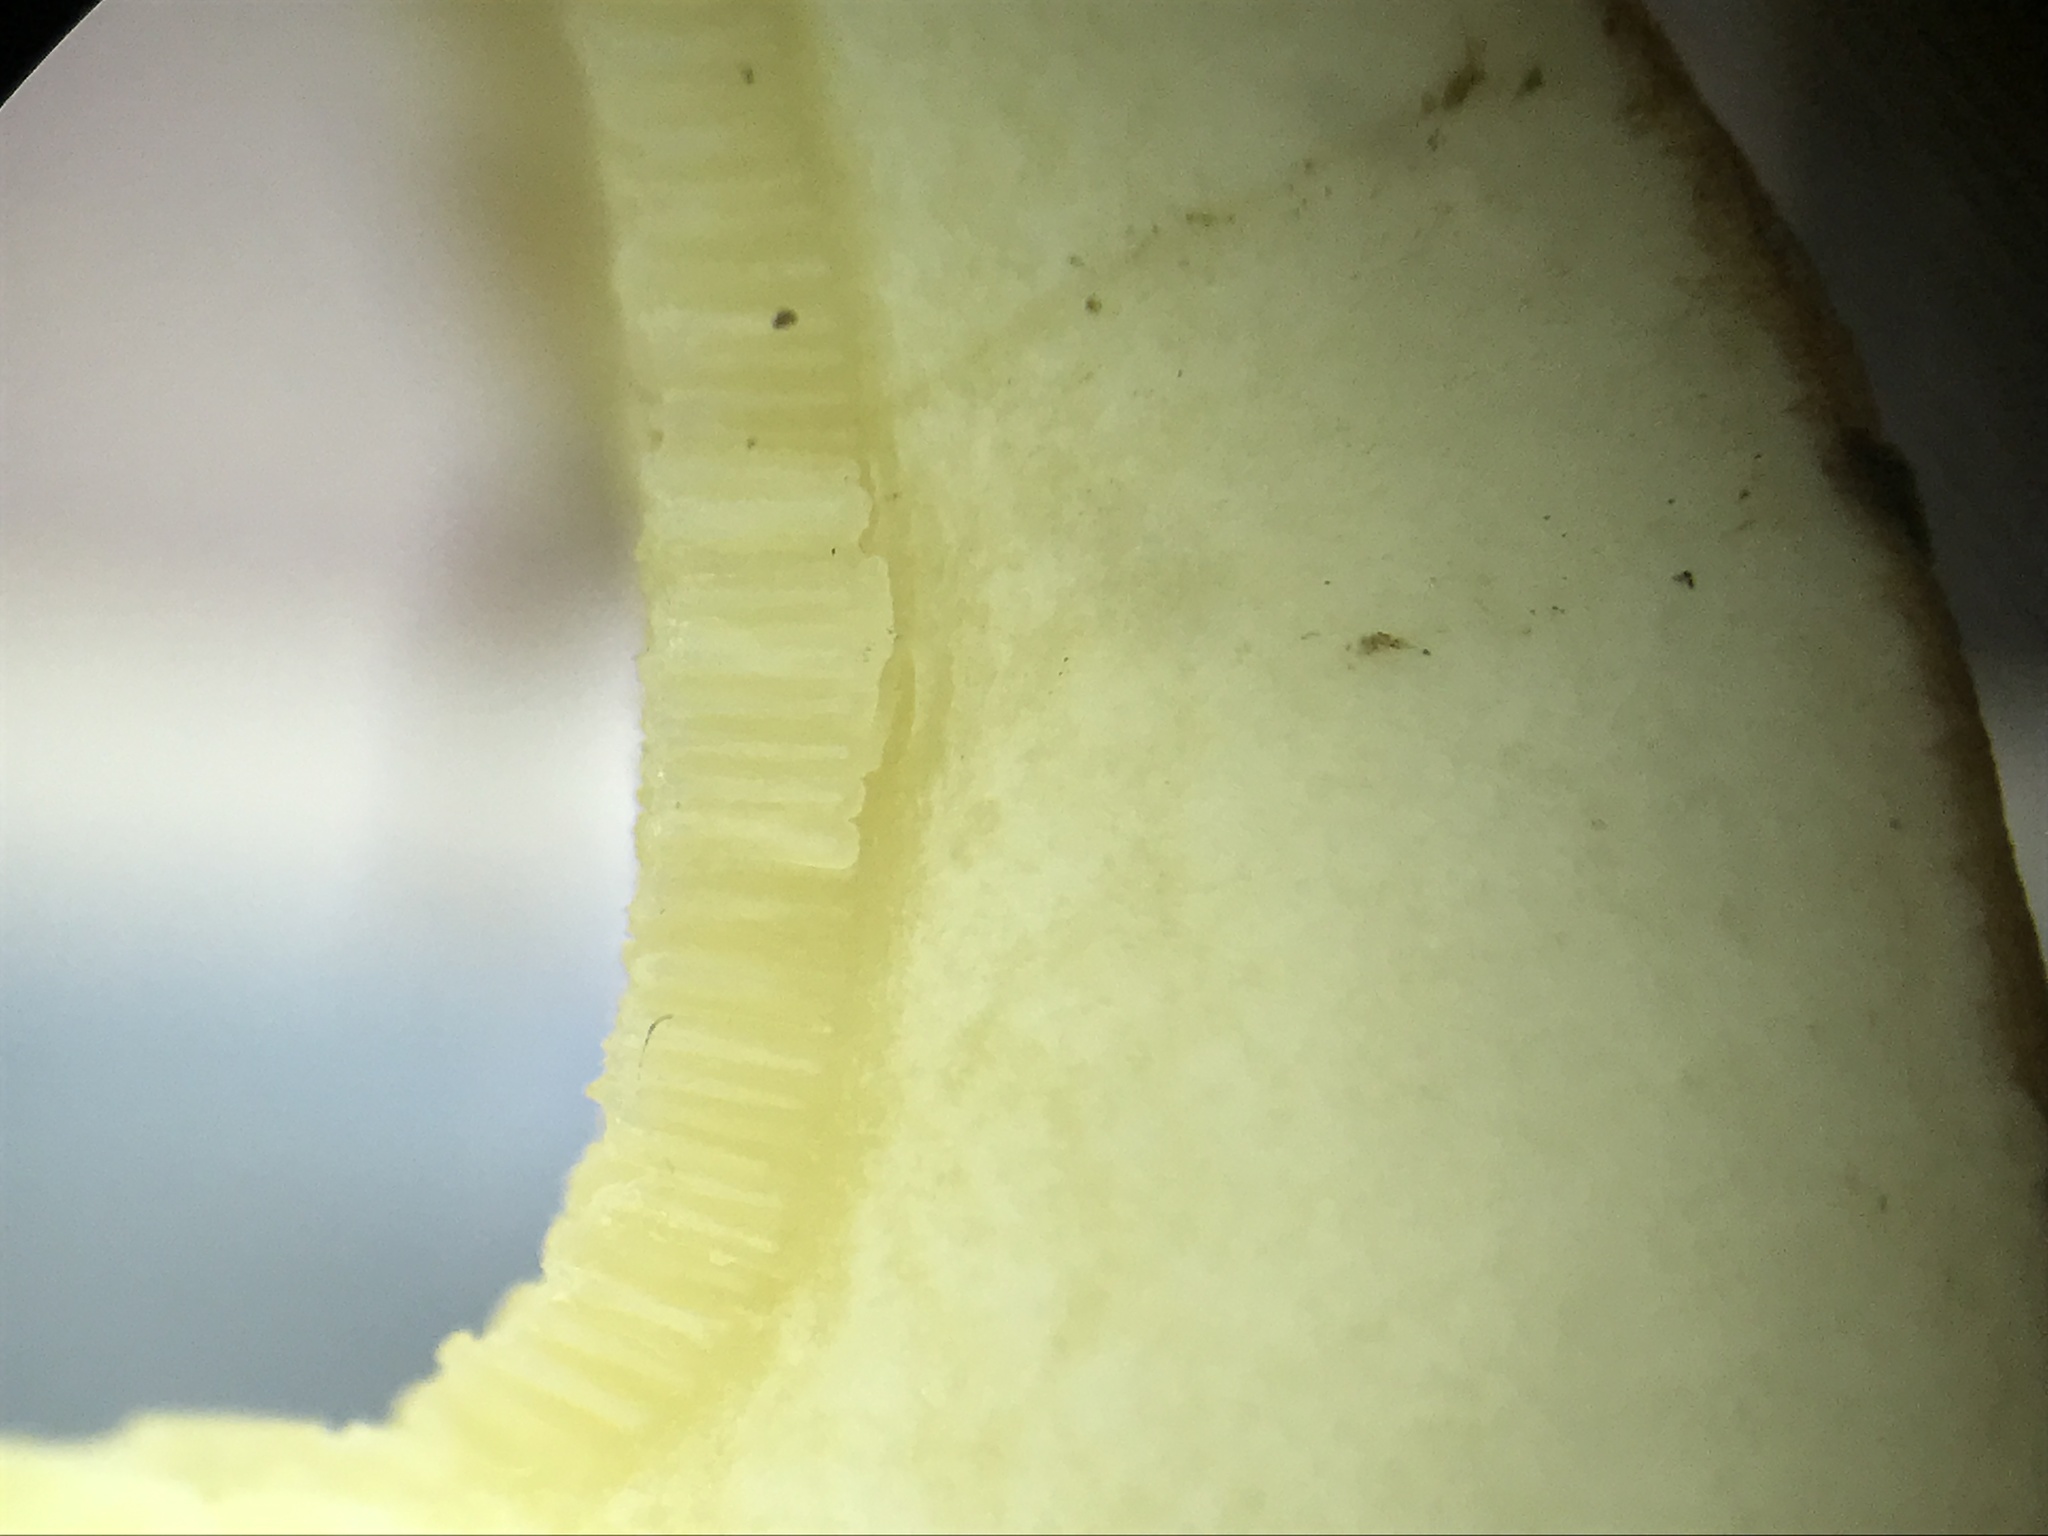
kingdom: Fungi
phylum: Basidiomycota
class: Agaricomycetes
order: Boletales
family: Suillaceae
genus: Suillus
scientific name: Suillus granulatus
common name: Weeping bolete
